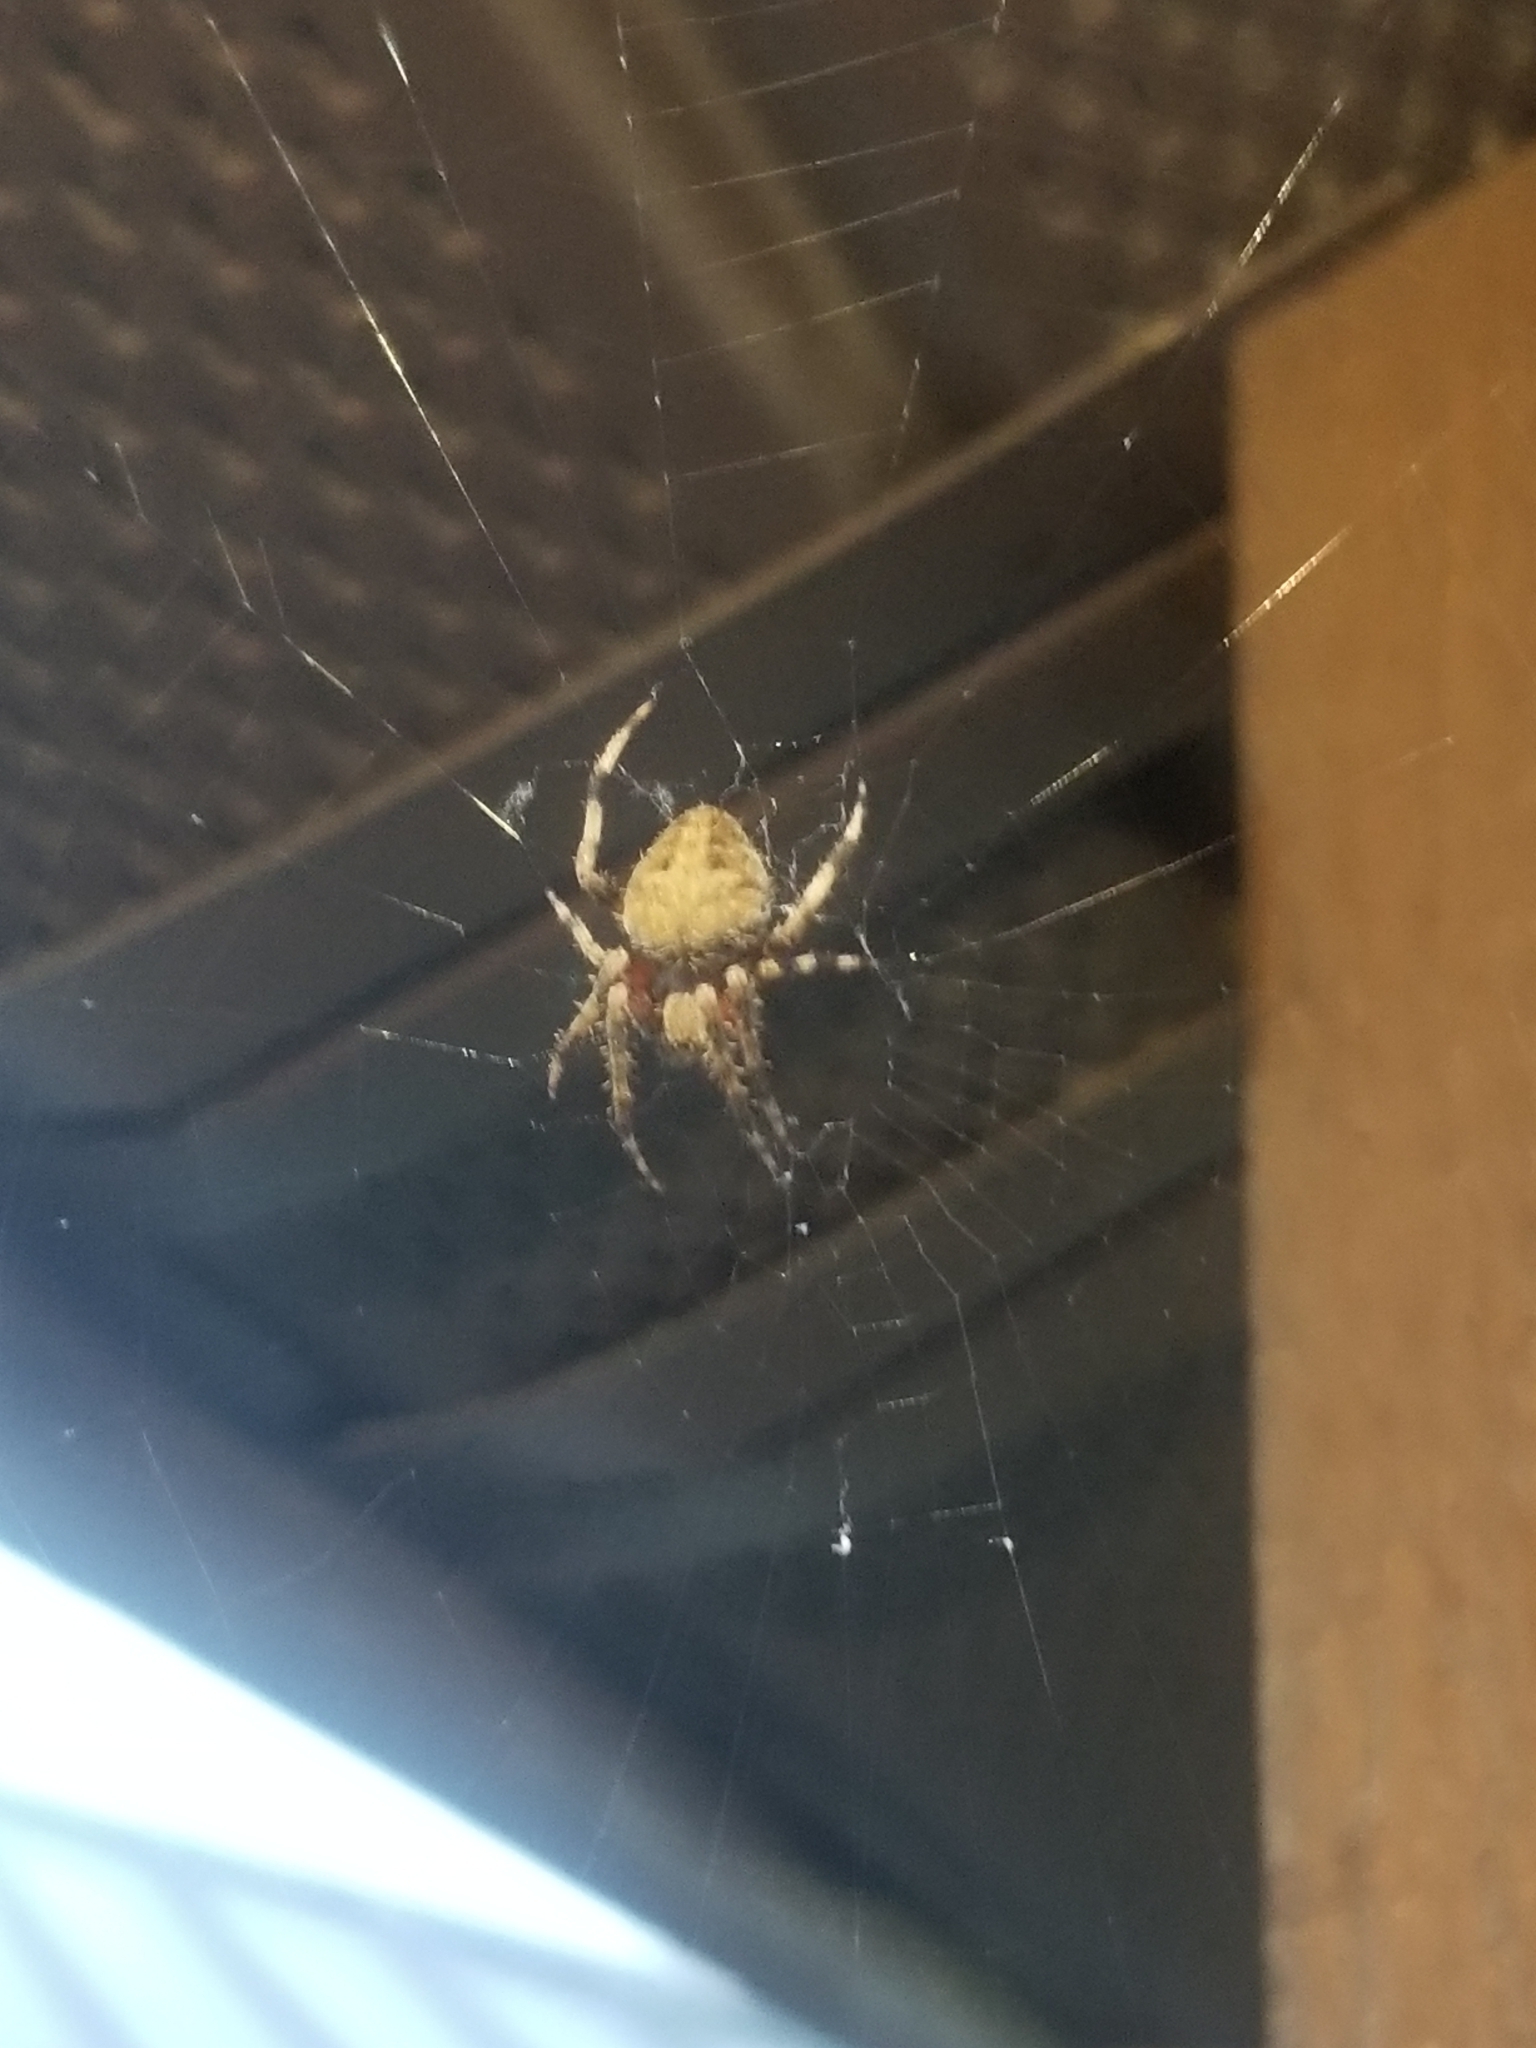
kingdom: Animalia
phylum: Arthropoda
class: Arachnida
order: Araneae
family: Araneidae
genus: Neoscona
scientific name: Neoscona crucifera
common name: Spotted orbweaver
